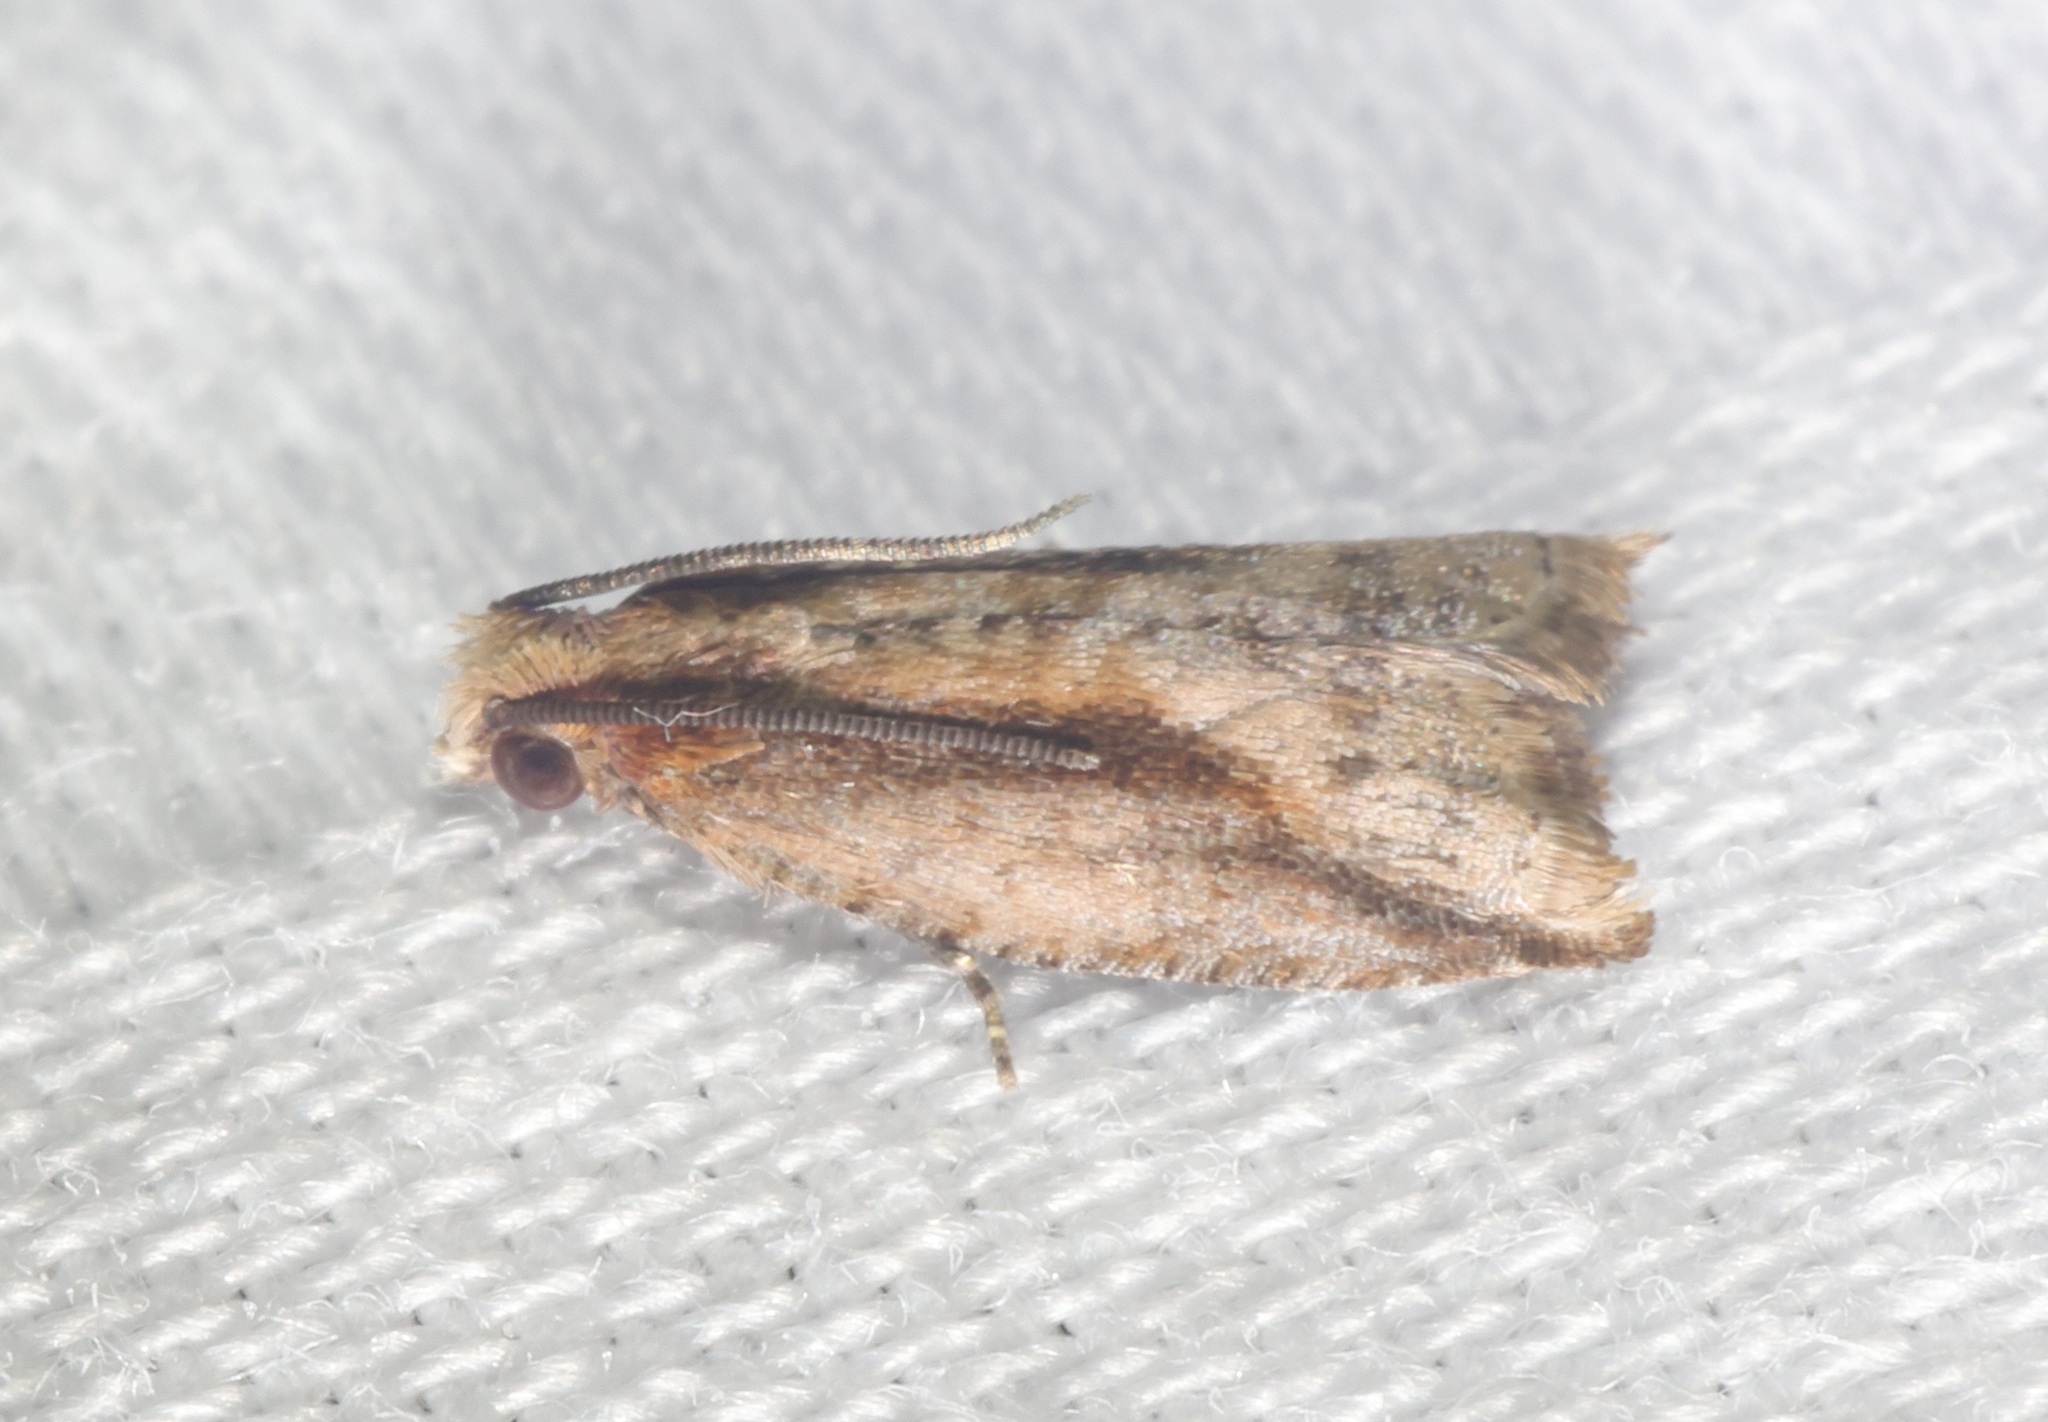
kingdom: Animalia
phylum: Arthropoda
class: Insecta
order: Lepidoptera
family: Tortricidae
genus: Spilonota
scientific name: Spilonota mortuana
